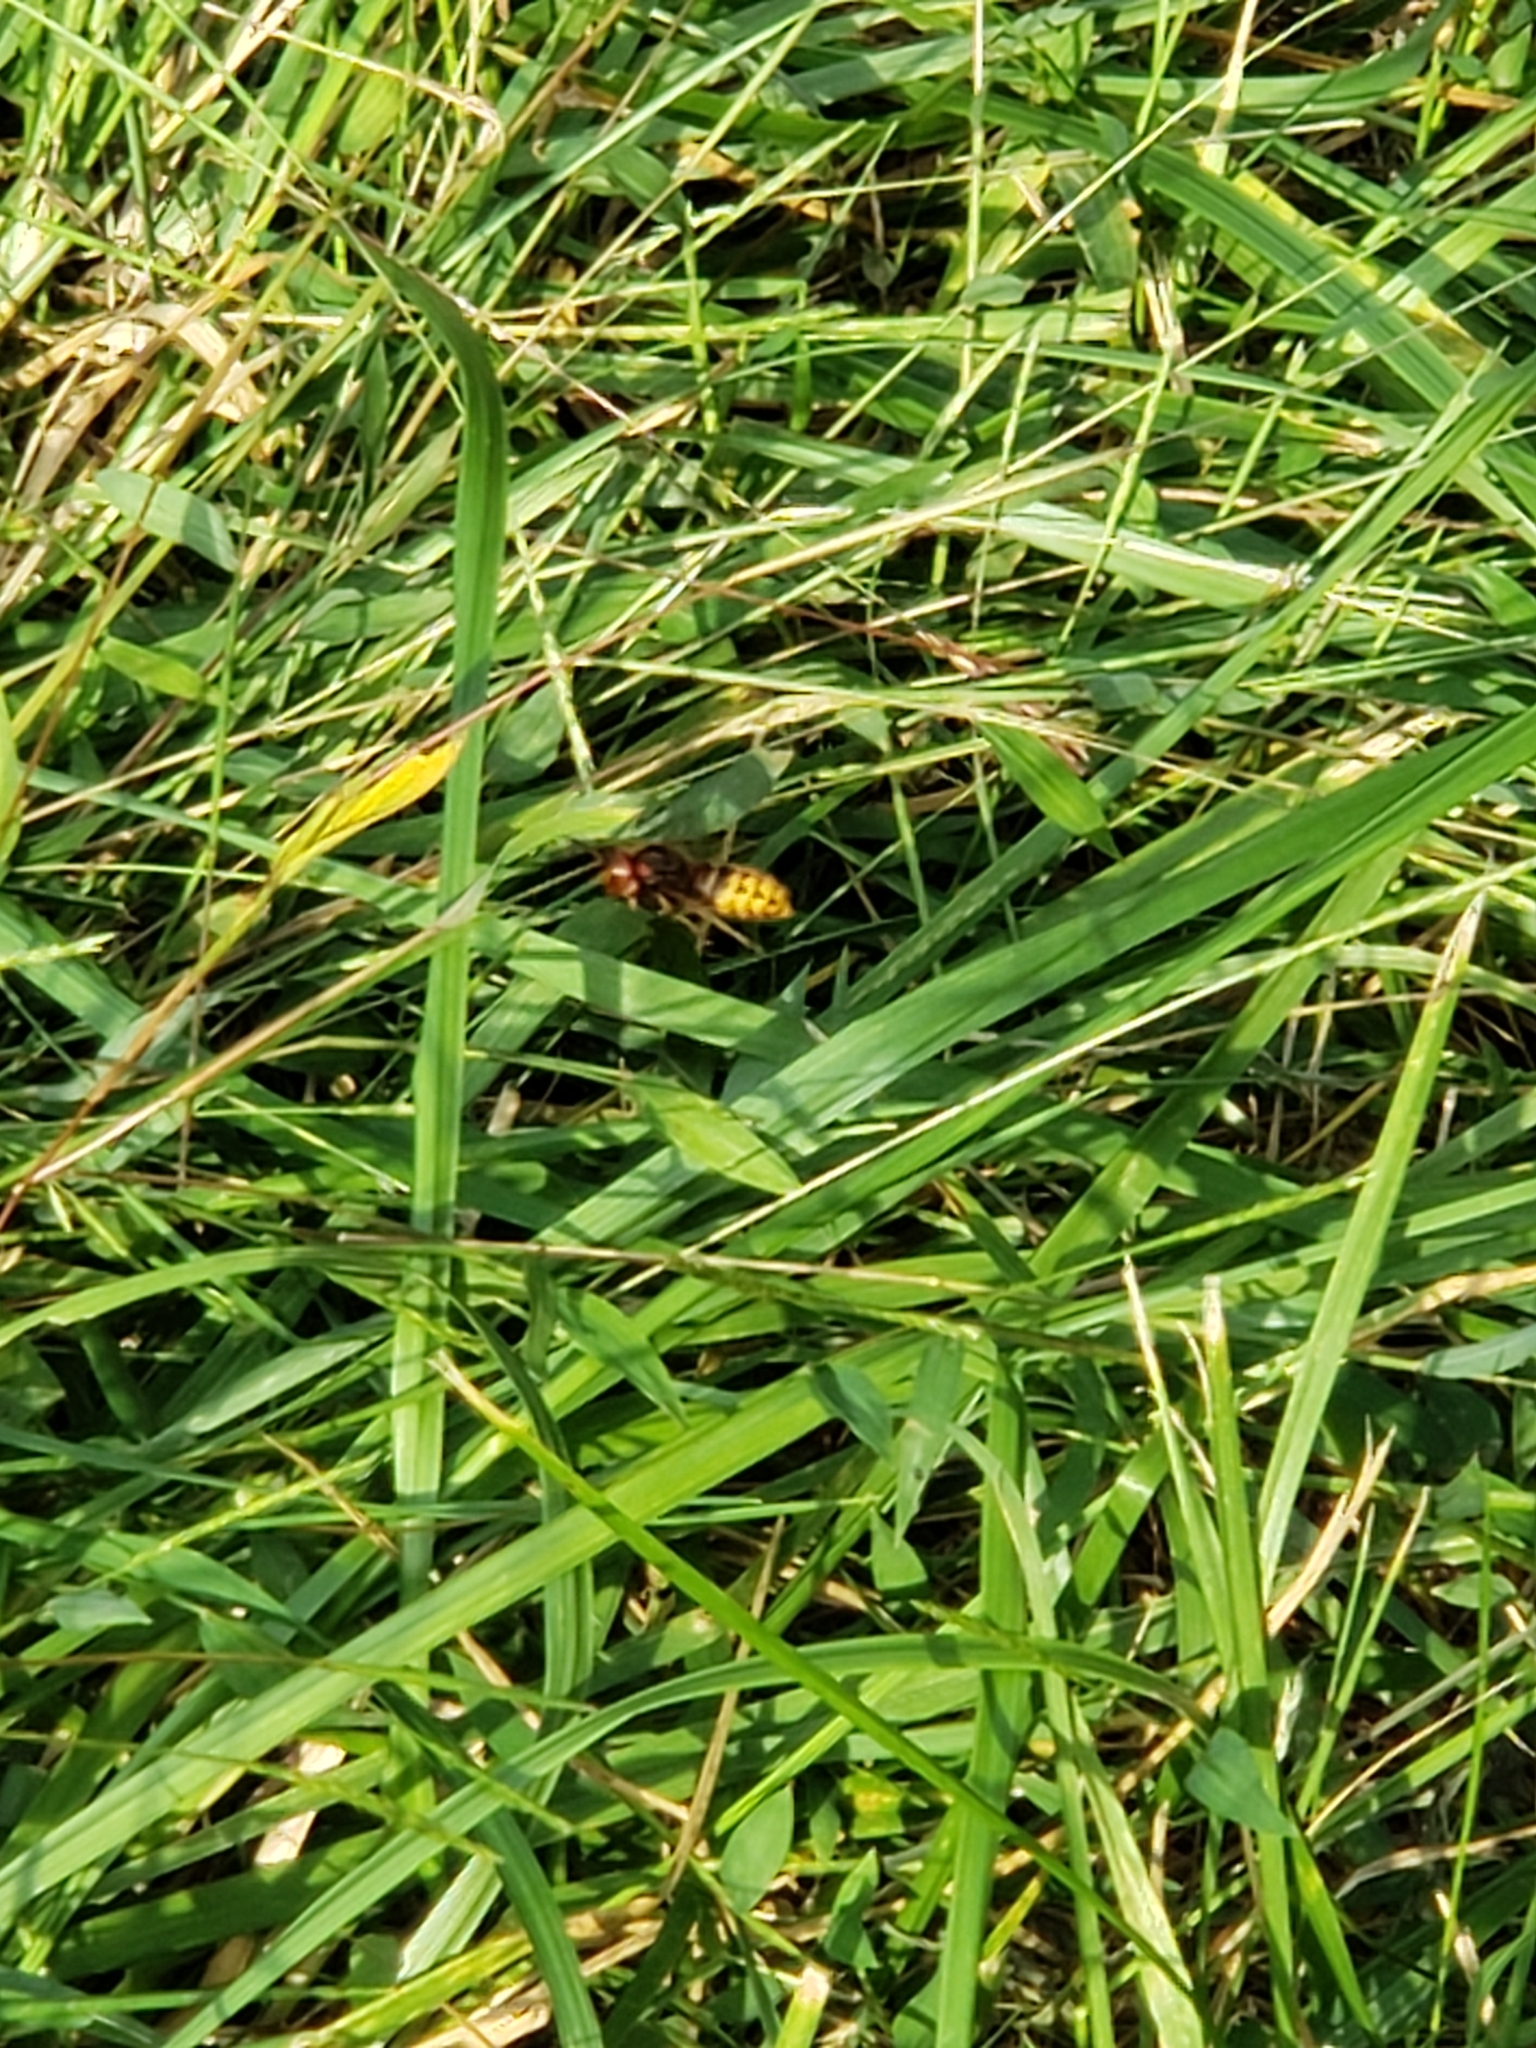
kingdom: Animalia
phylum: Arthropoda
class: Insecta
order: Hymenoptera
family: Vespidae
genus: Vespa
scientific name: Vespa crabro
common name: Hornet
